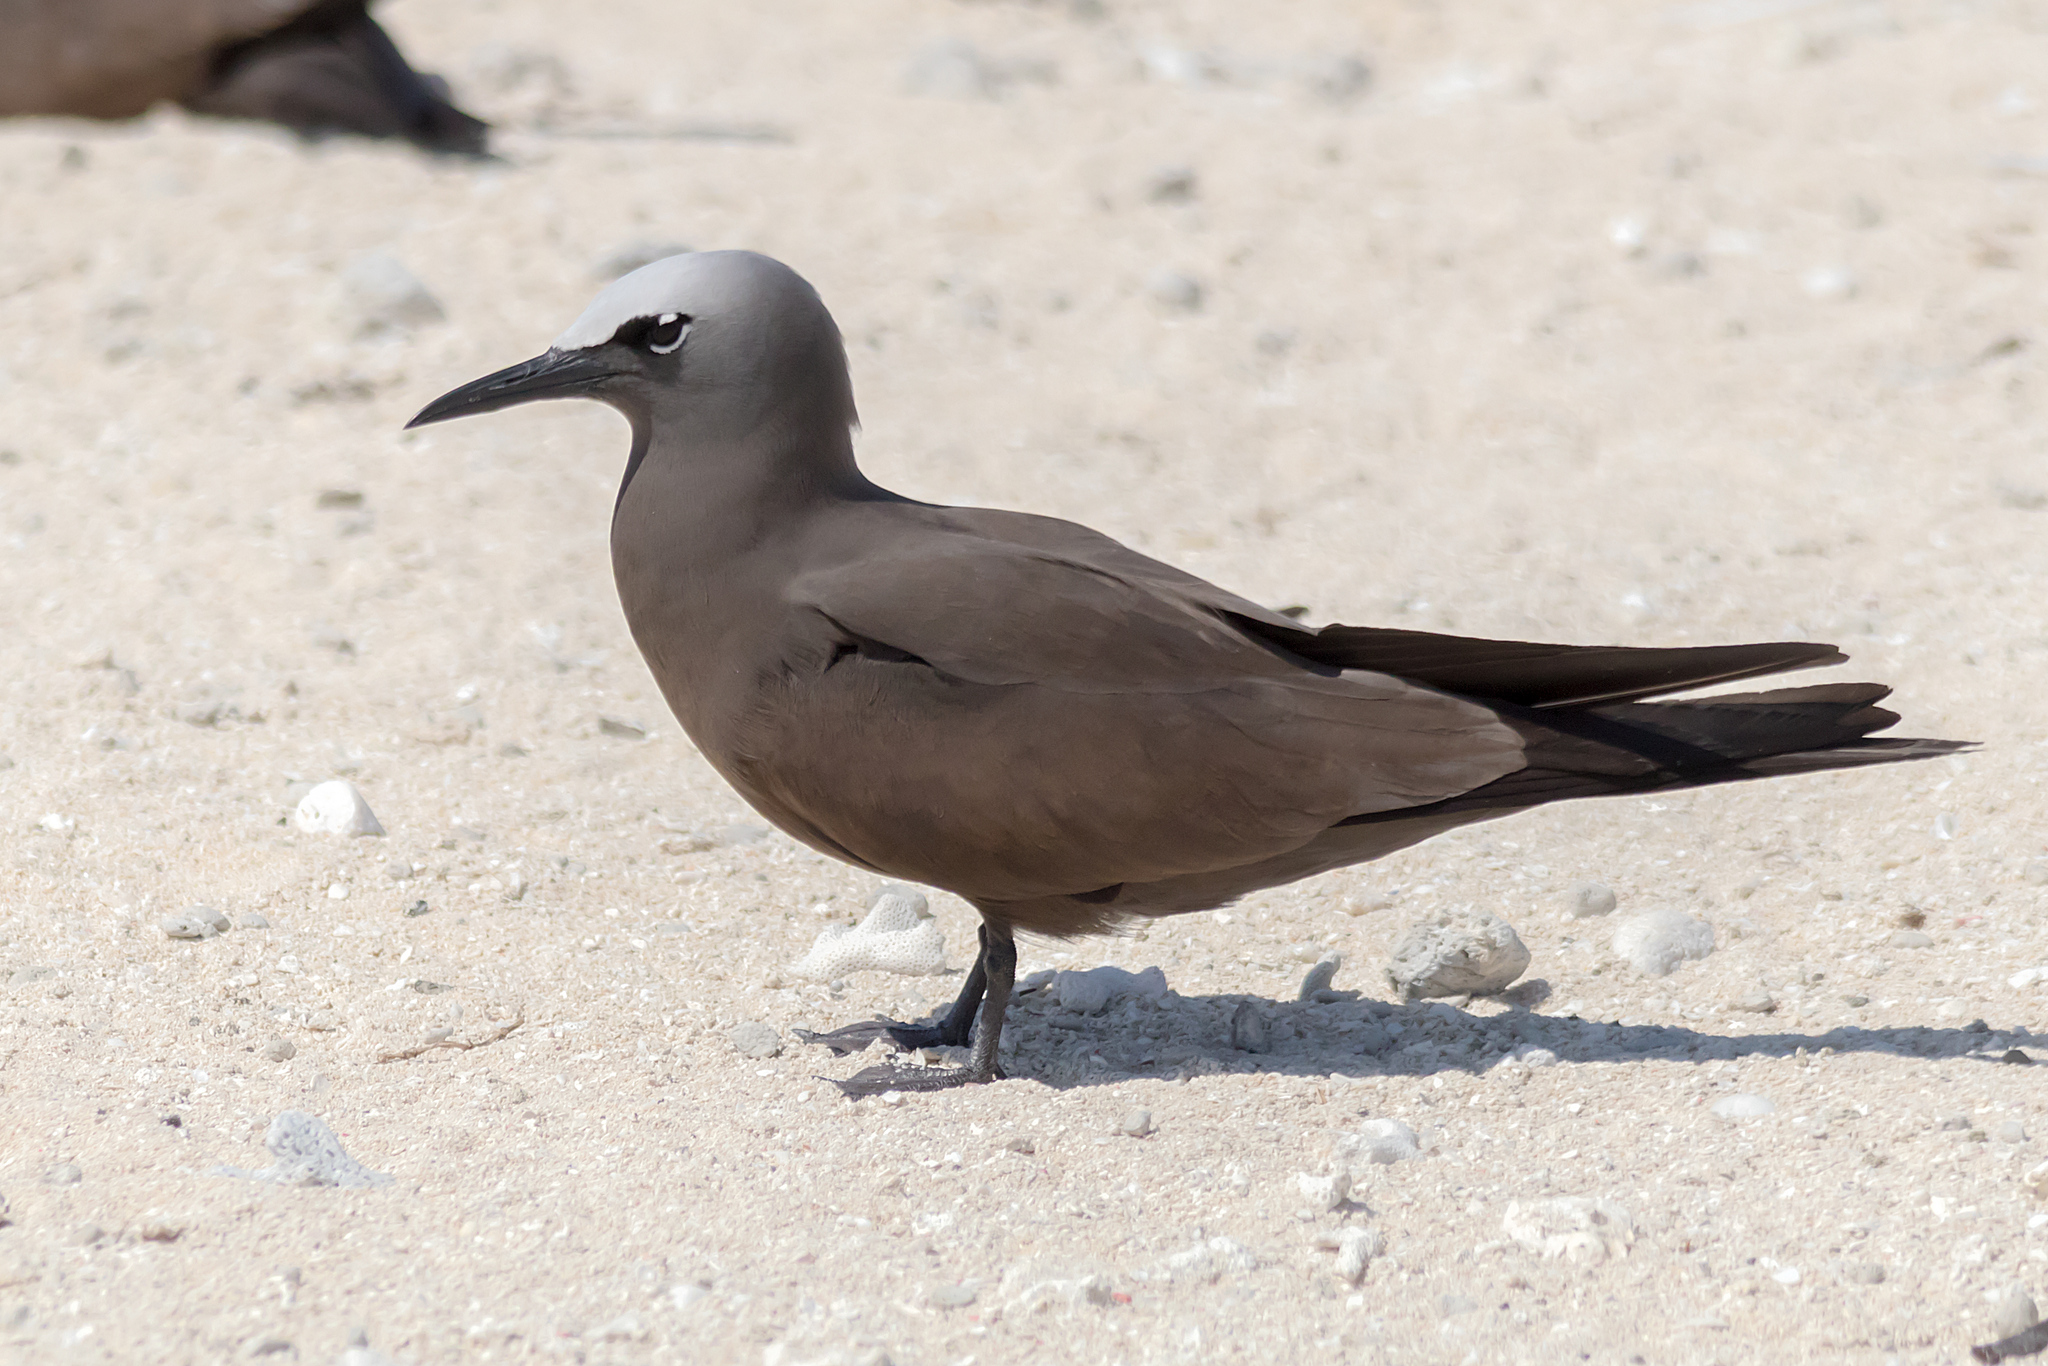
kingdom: Animalia
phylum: Chordata
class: Aves
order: Charadriiformes
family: Laridae
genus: Anous
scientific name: Anous stolidus
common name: Brown noddy
